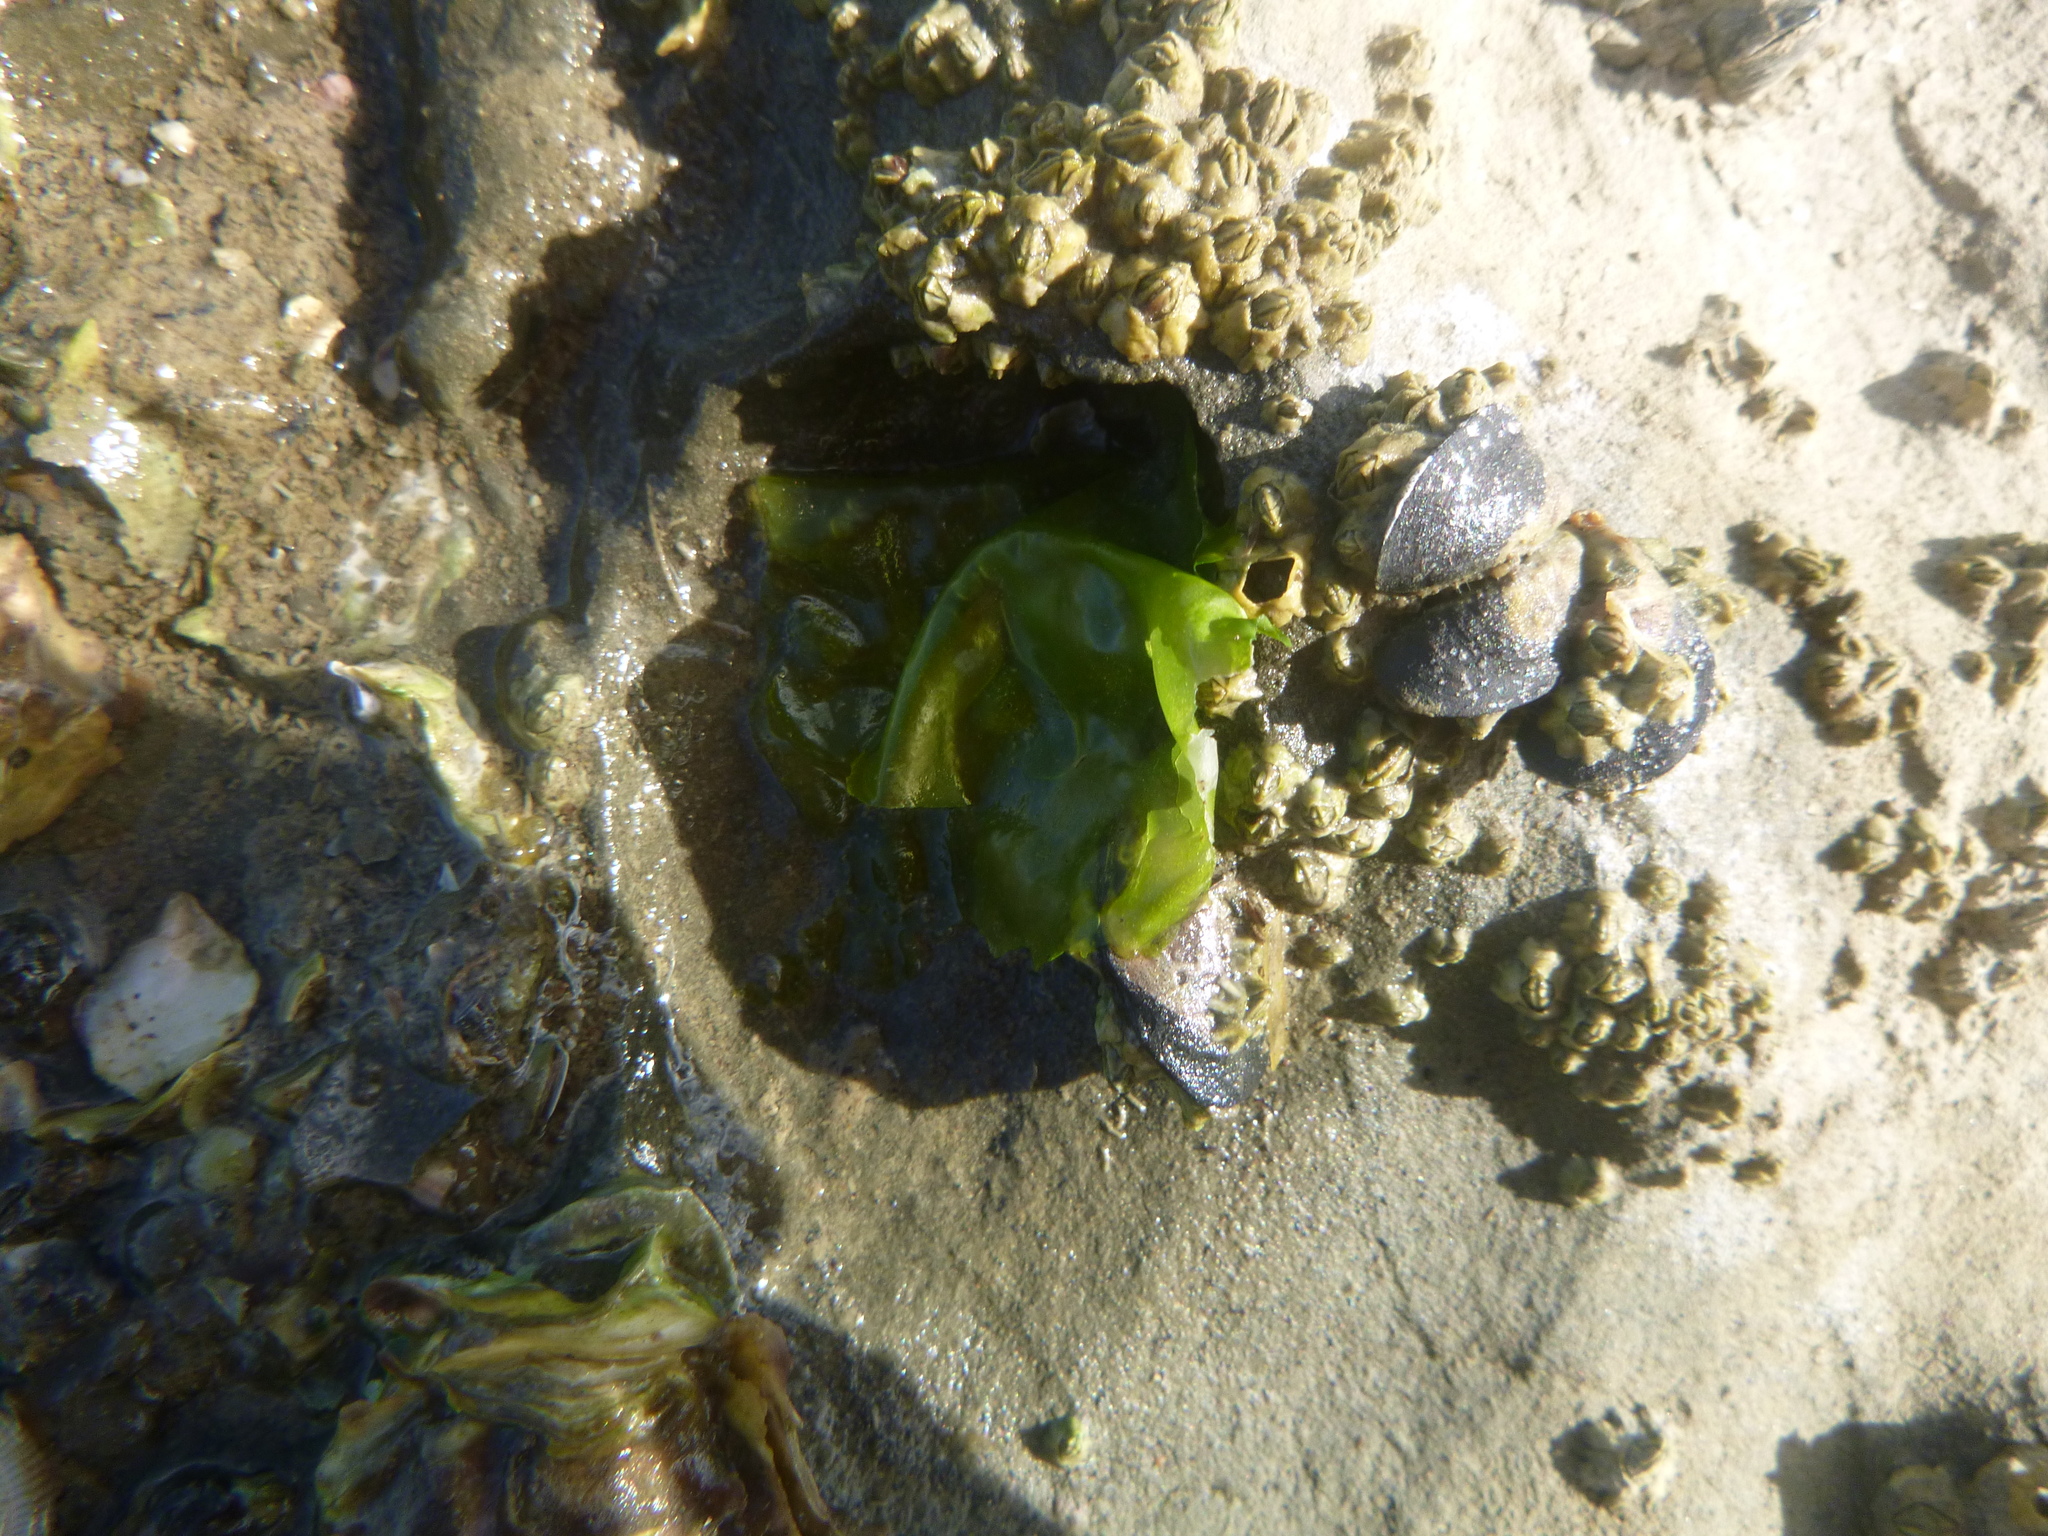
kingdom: Plantae
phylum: Chlorophyta
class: Ulvophyceae
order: Ulvales
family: Ulvaceae
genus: Ulva
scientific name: Ulva
